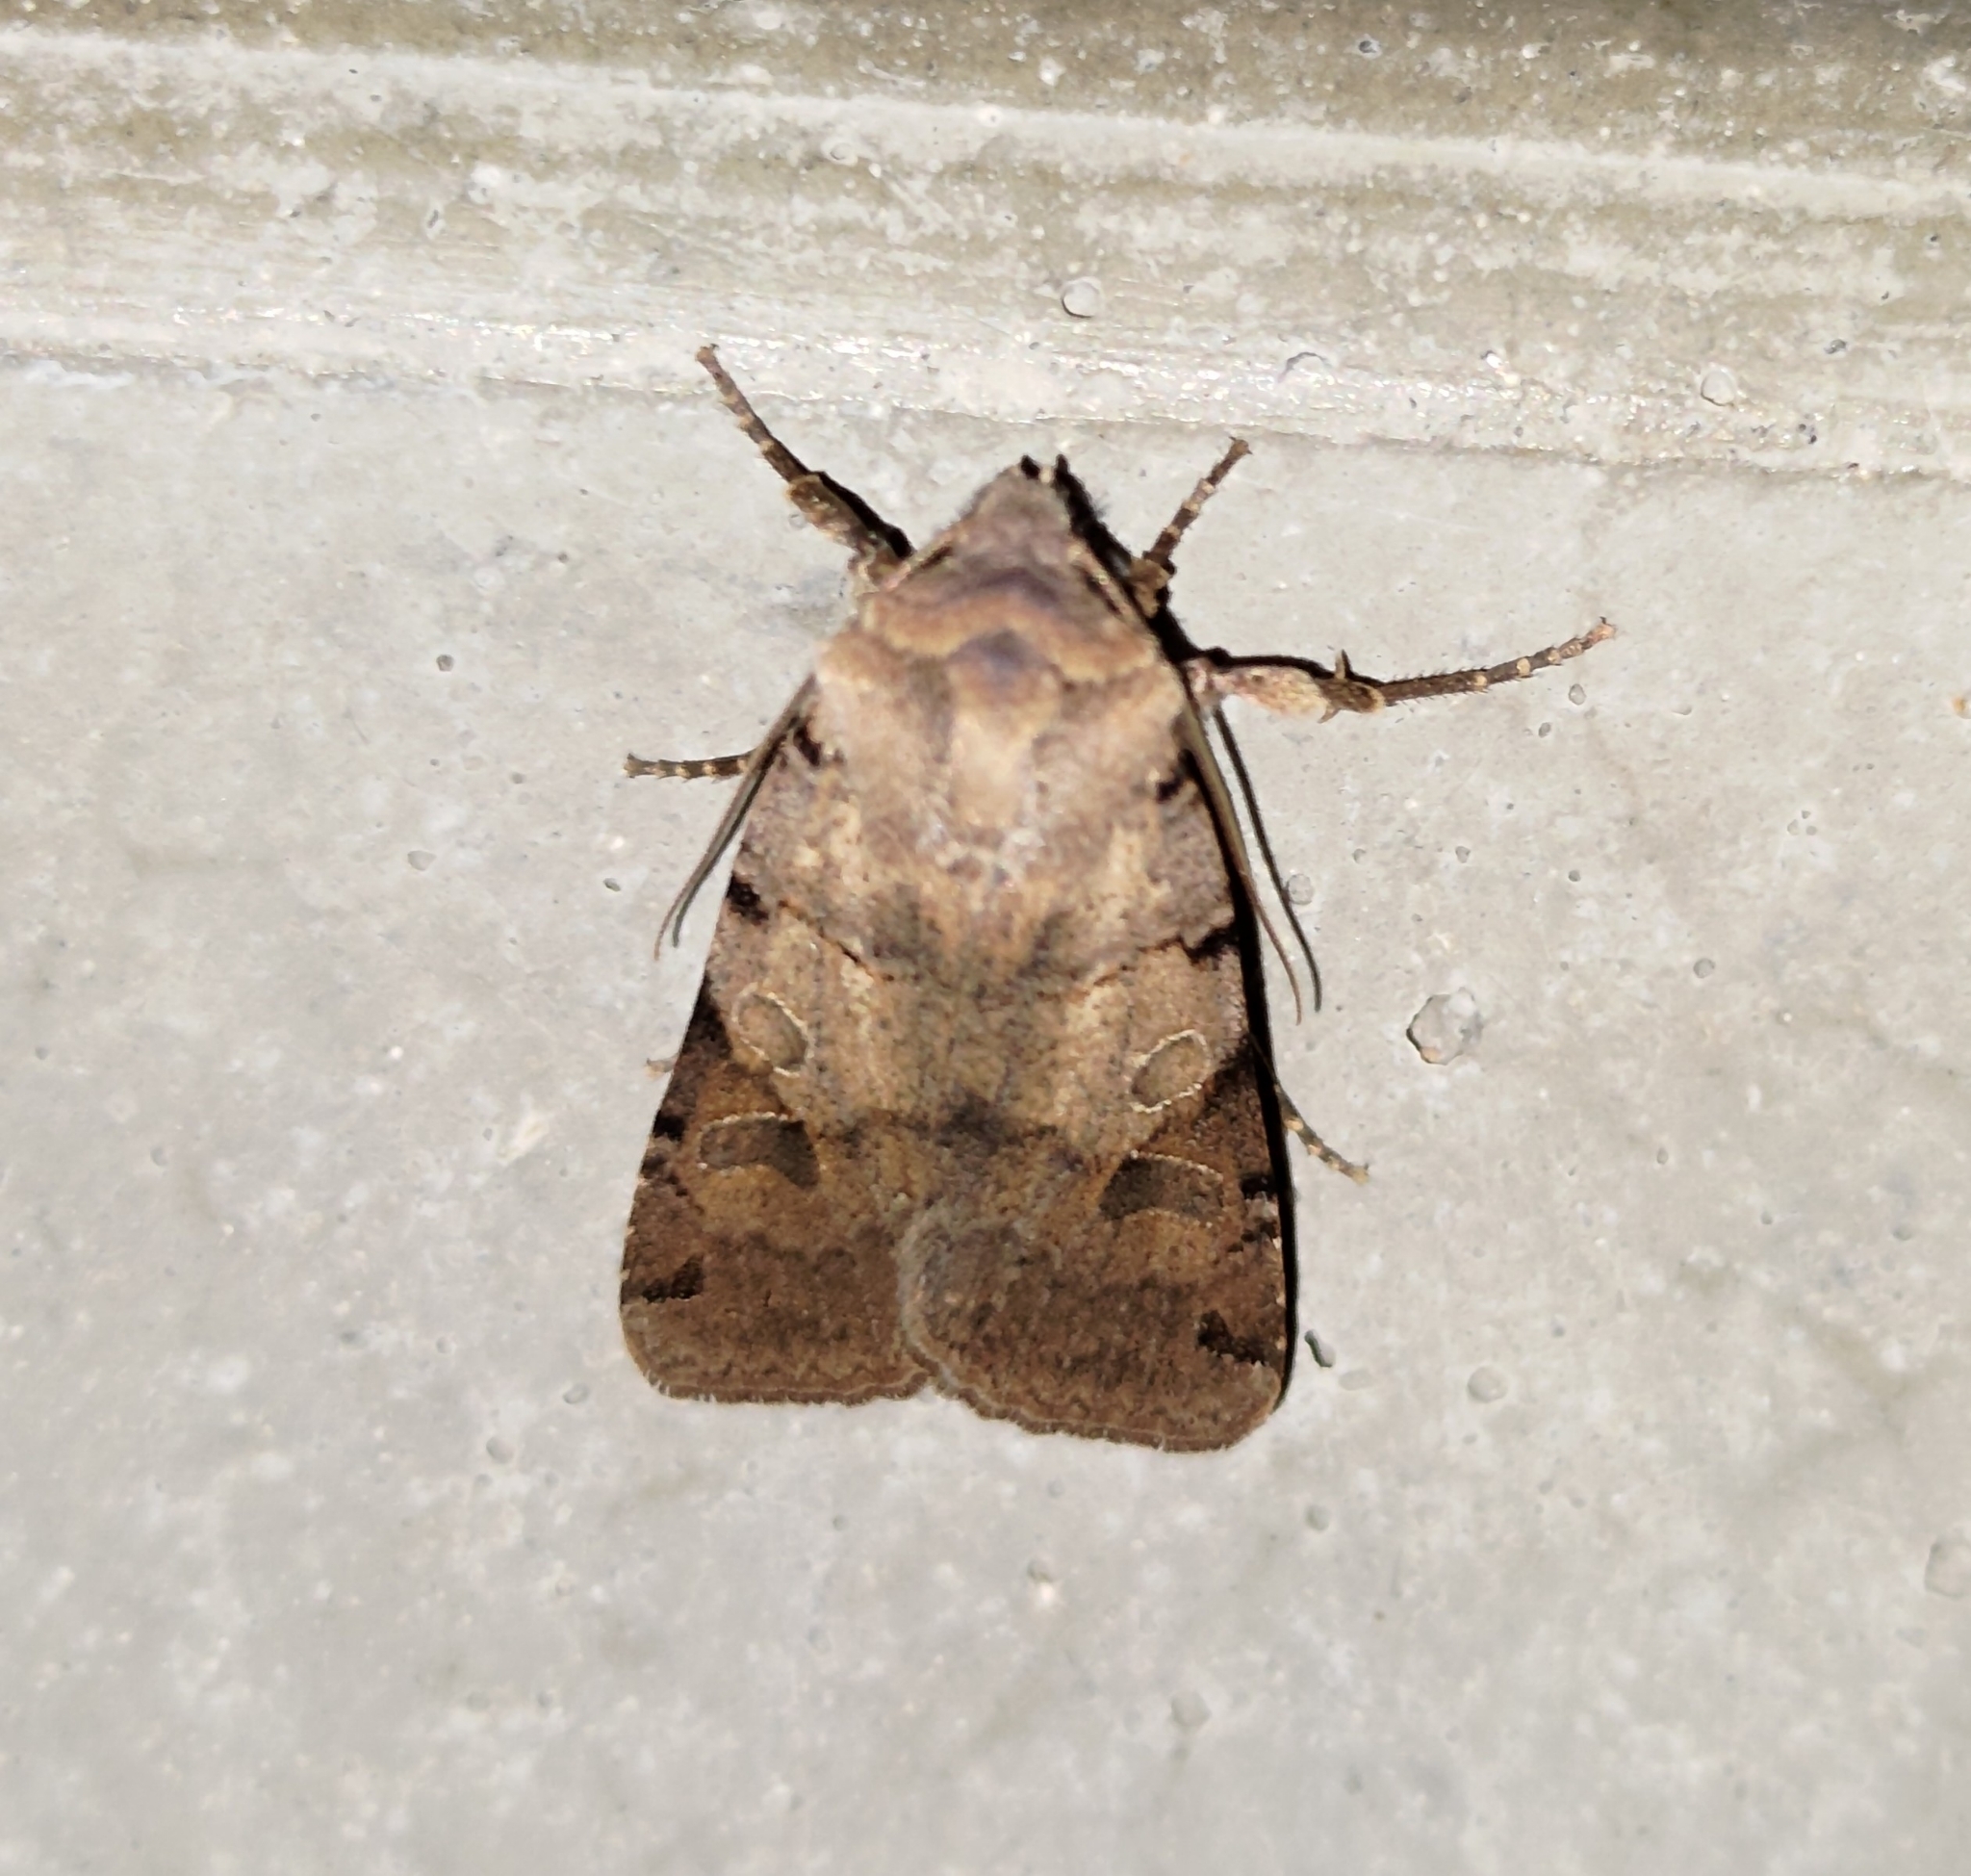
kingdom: Animalia
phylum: Arthropoda
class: Insecta
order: Lepidoptera
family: Noctuidae
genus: Agrochola
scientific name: Agrochola litura
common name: Brown-spot pinion
